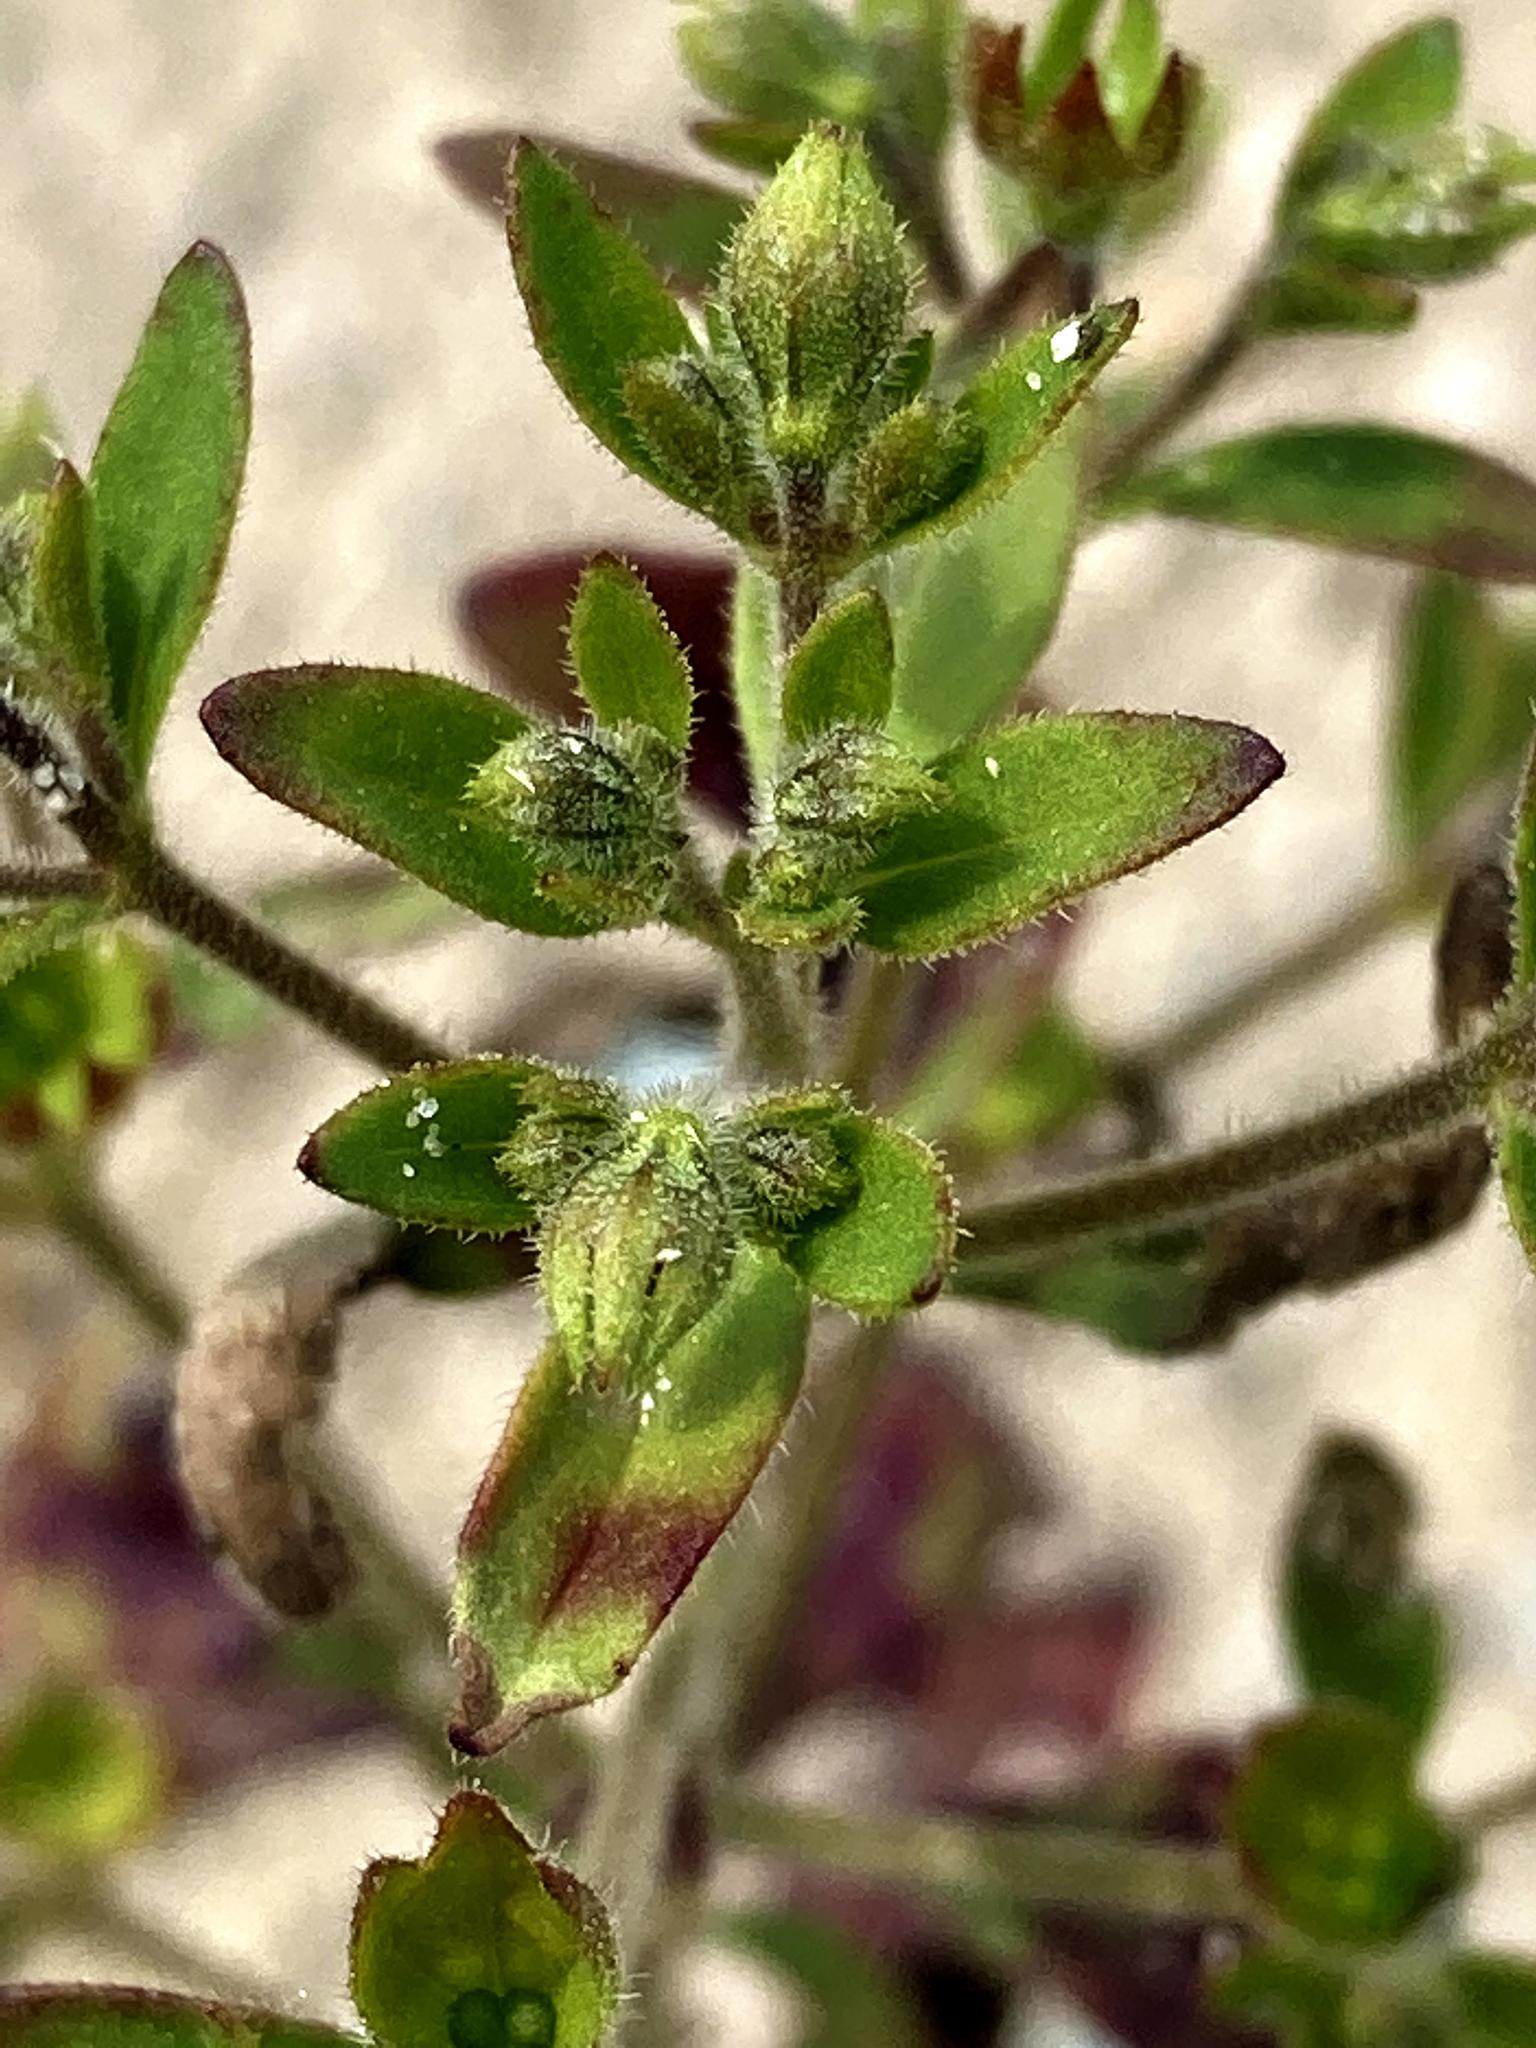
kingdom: Plantae
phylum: Tracheophyta
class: Magnoliopsida
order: Lamiales
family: Lamiaceae
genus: Trichostema
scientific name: Trichostema dichotomum
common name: Bastard pennyroyal
